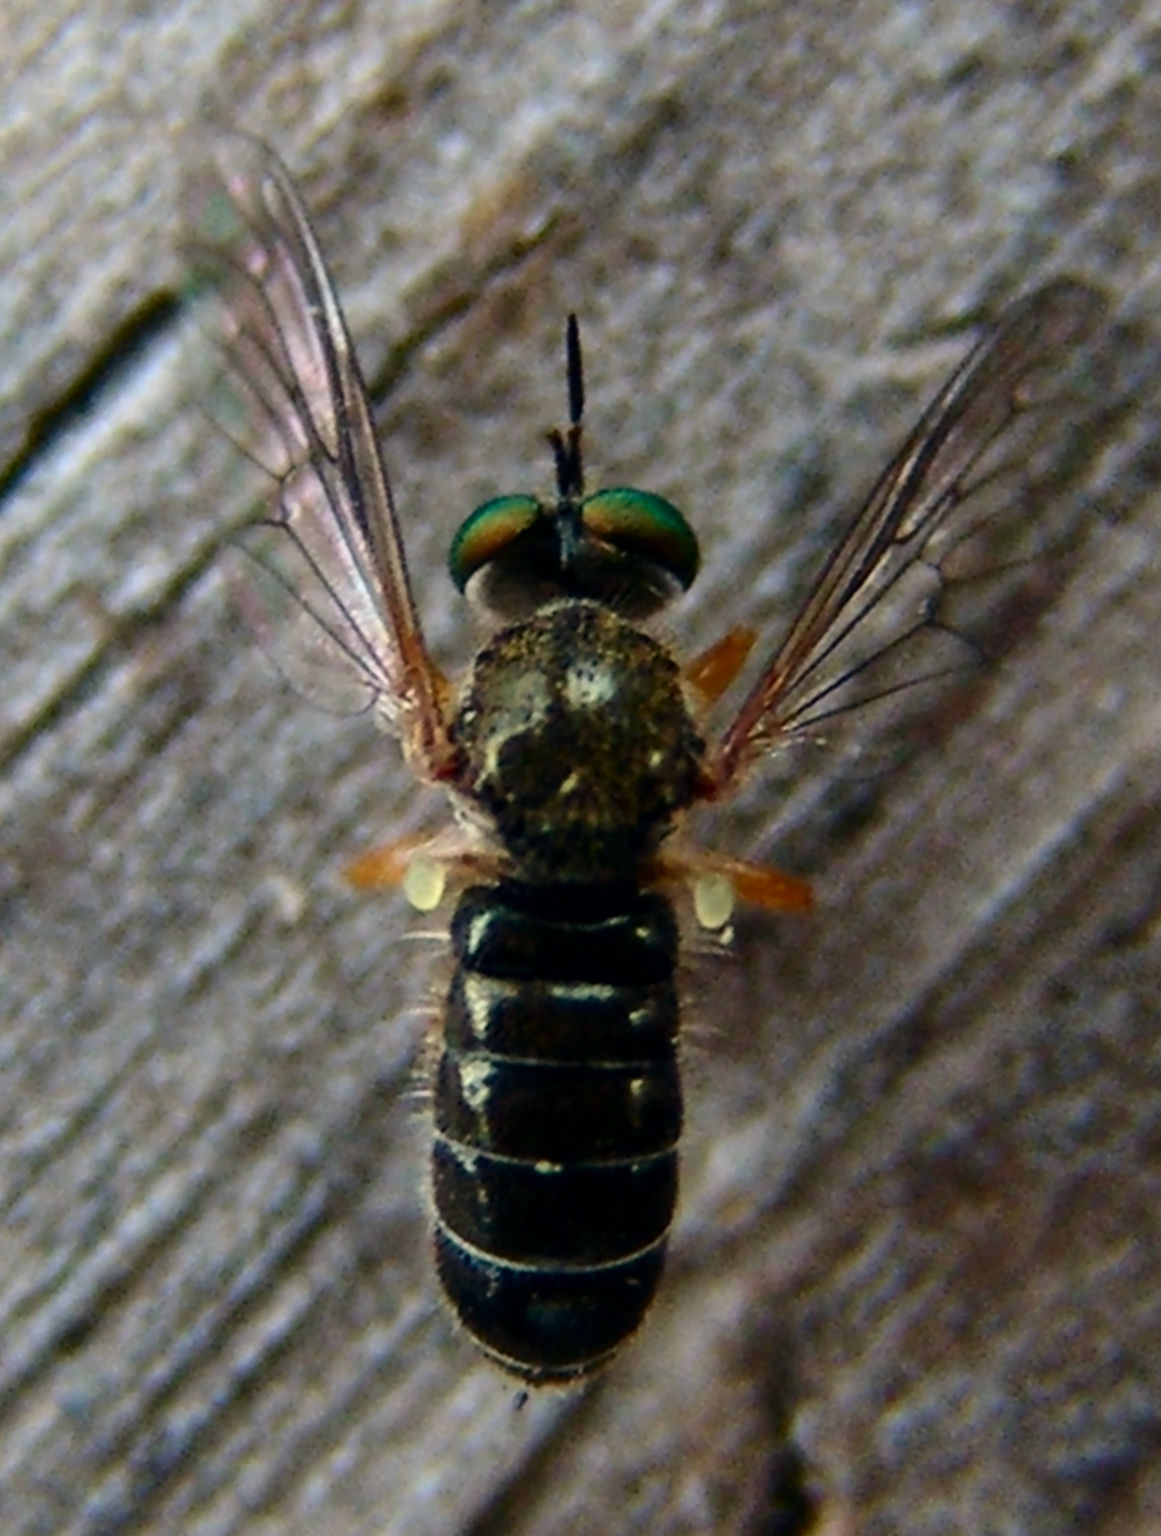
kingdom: Animalia
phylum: Arthropoda
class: Insecta
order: Diptera
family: Asilidae
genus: Atomosia
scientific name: Atomosia sayii
